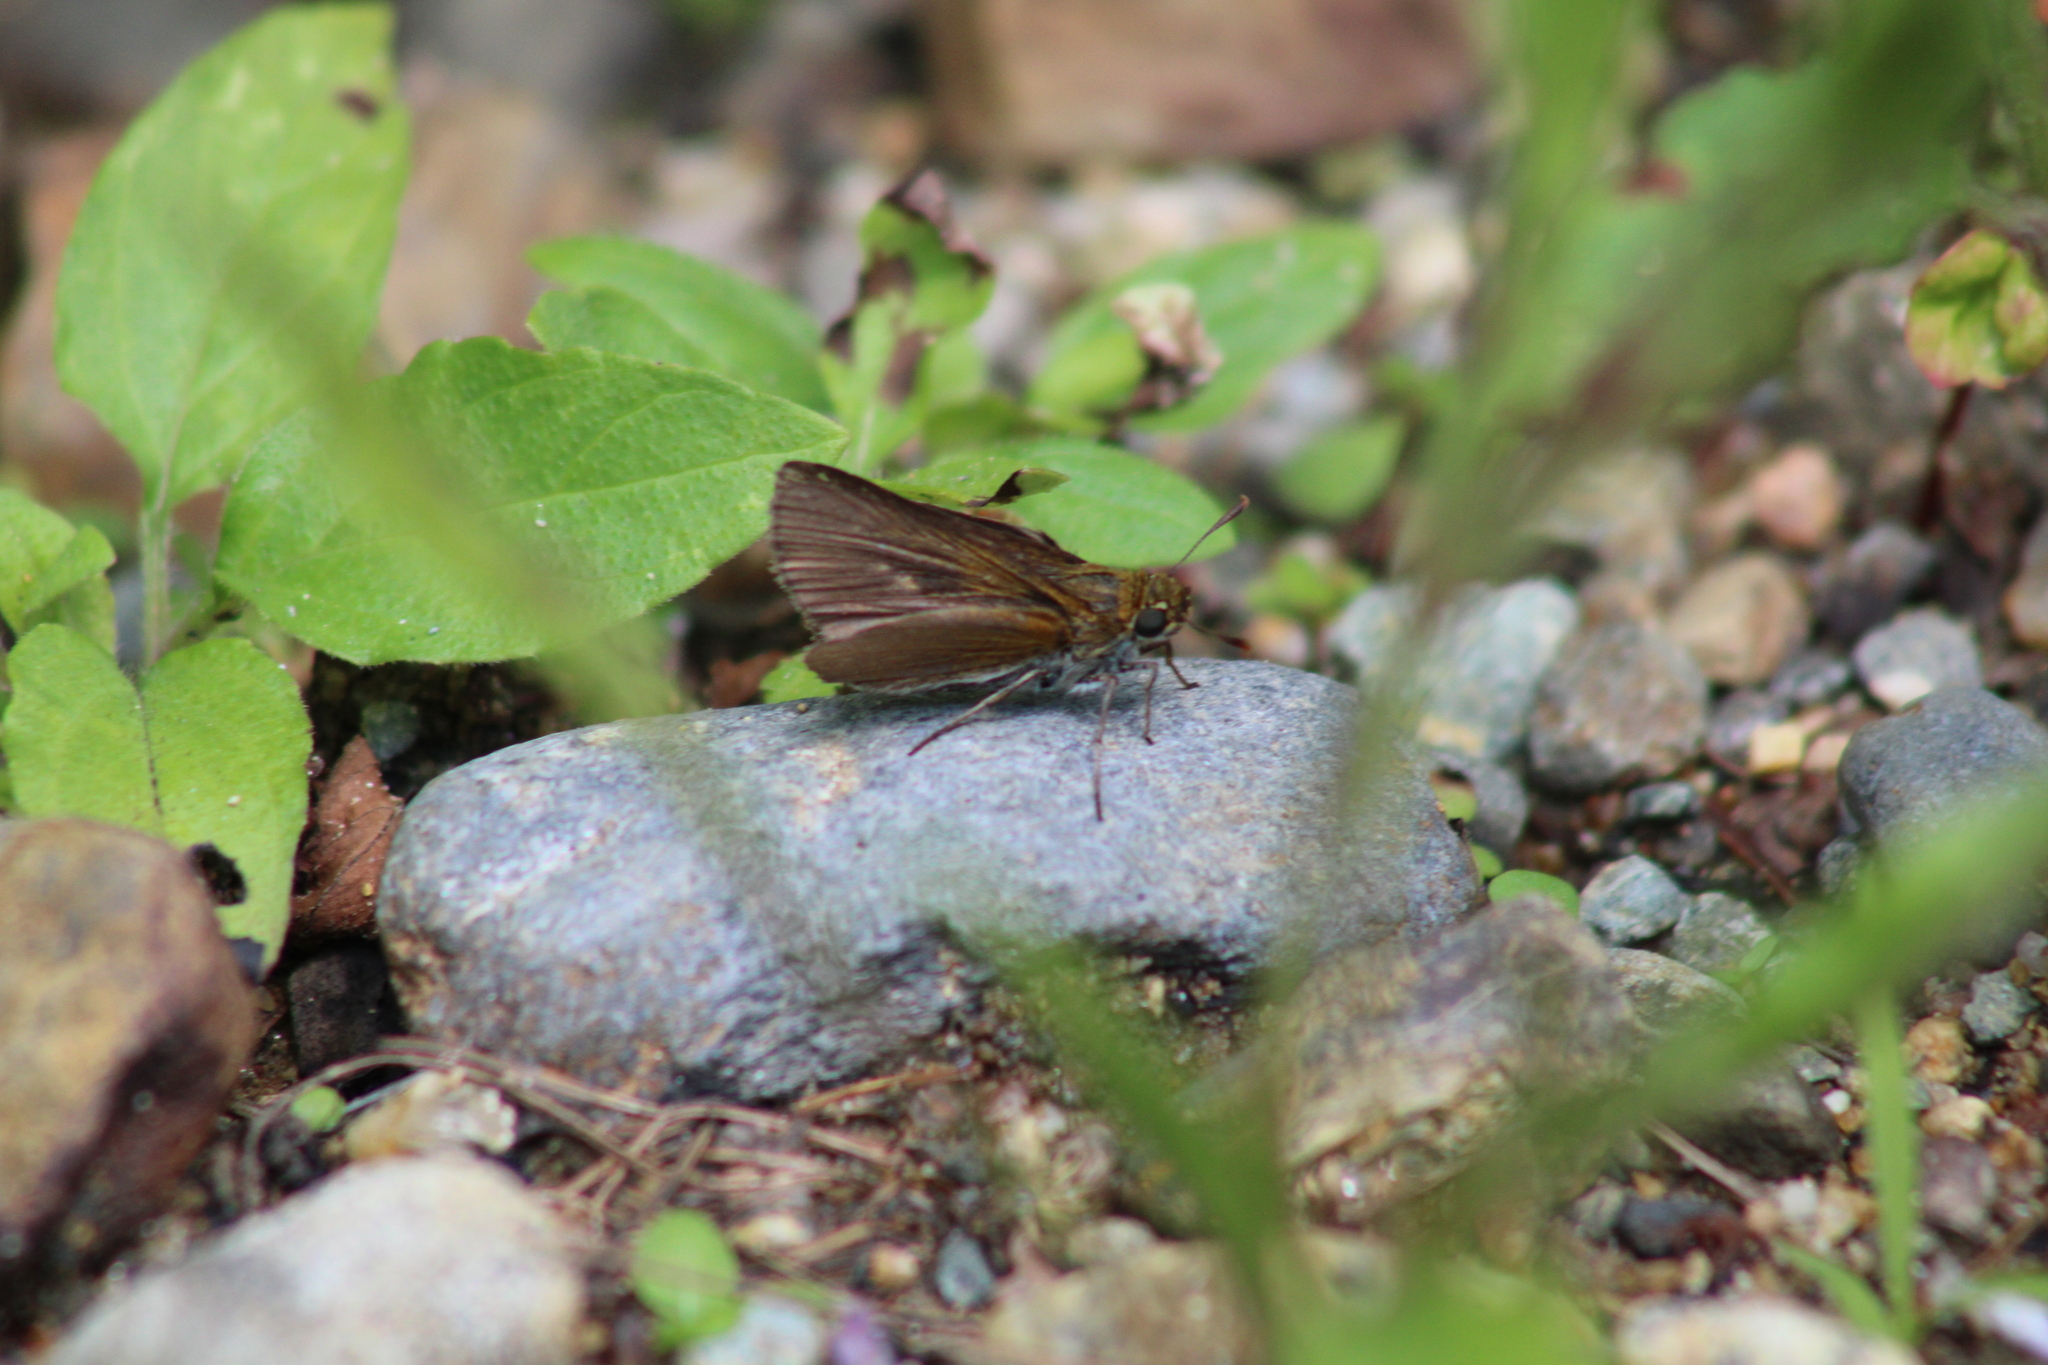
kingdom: Animalia
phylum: Arthropoda
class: Insecta
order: Lepidoptera
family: Hesperiidae
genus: Euphyes
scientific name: Euphyes vestris
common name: Dun skipper
